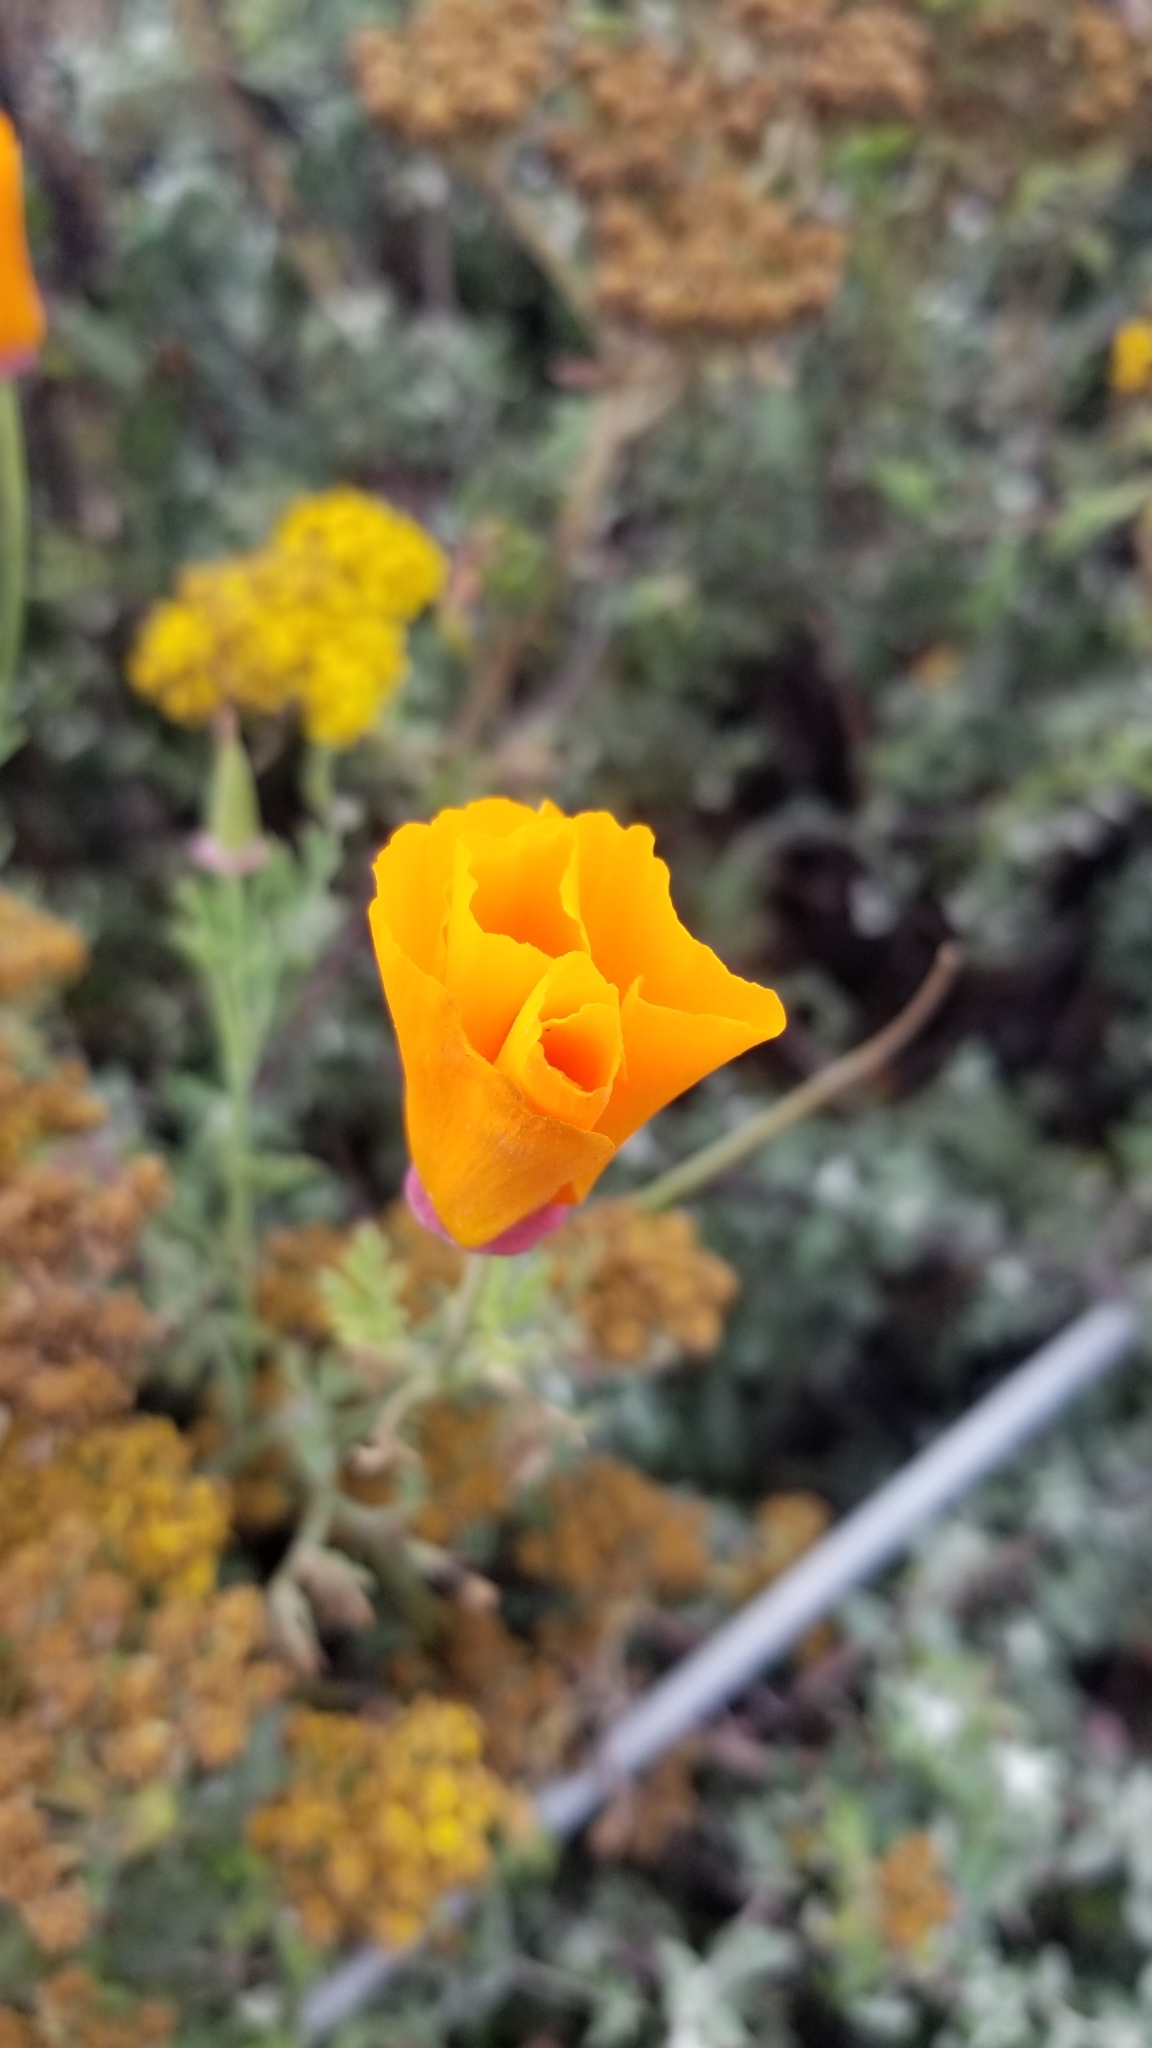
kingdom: Plantae
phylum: Tracheophyta
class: Magnoliopsida
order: Ranunculales
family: Papaveraceae
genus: Eschscholzia
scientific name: Eschscholzia californica
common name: California poppy
